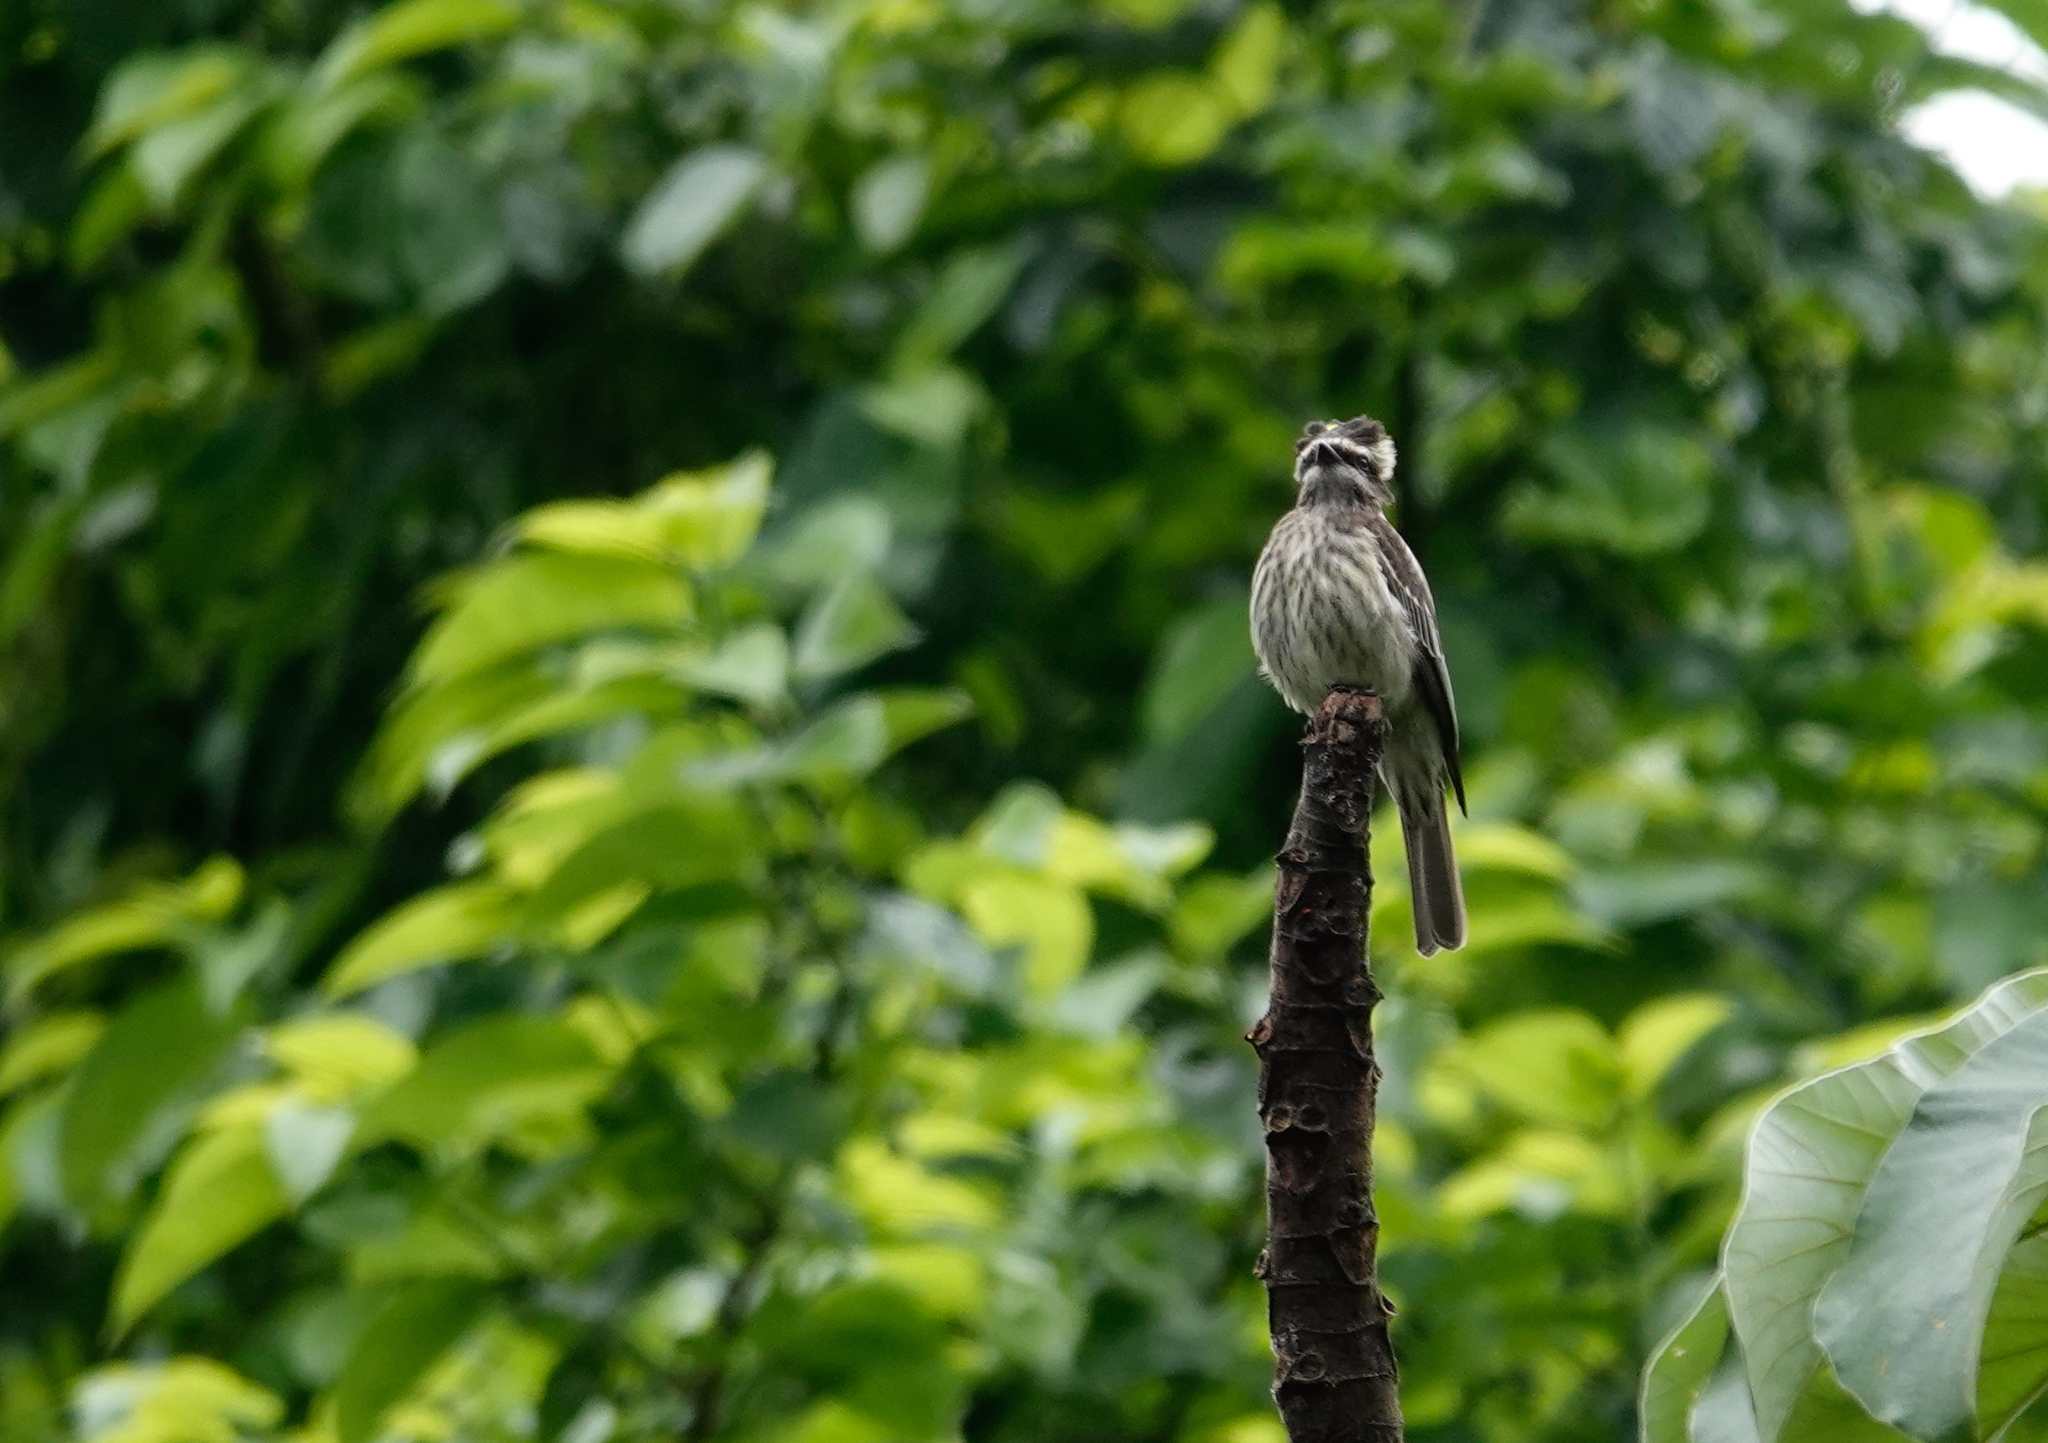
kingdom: Animalia
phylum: Chordata
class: Aves
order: Passeriformes
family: Tyrannidae
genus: Empidonomus
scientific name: Empidonomus varius
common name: Variegated flycatcher
